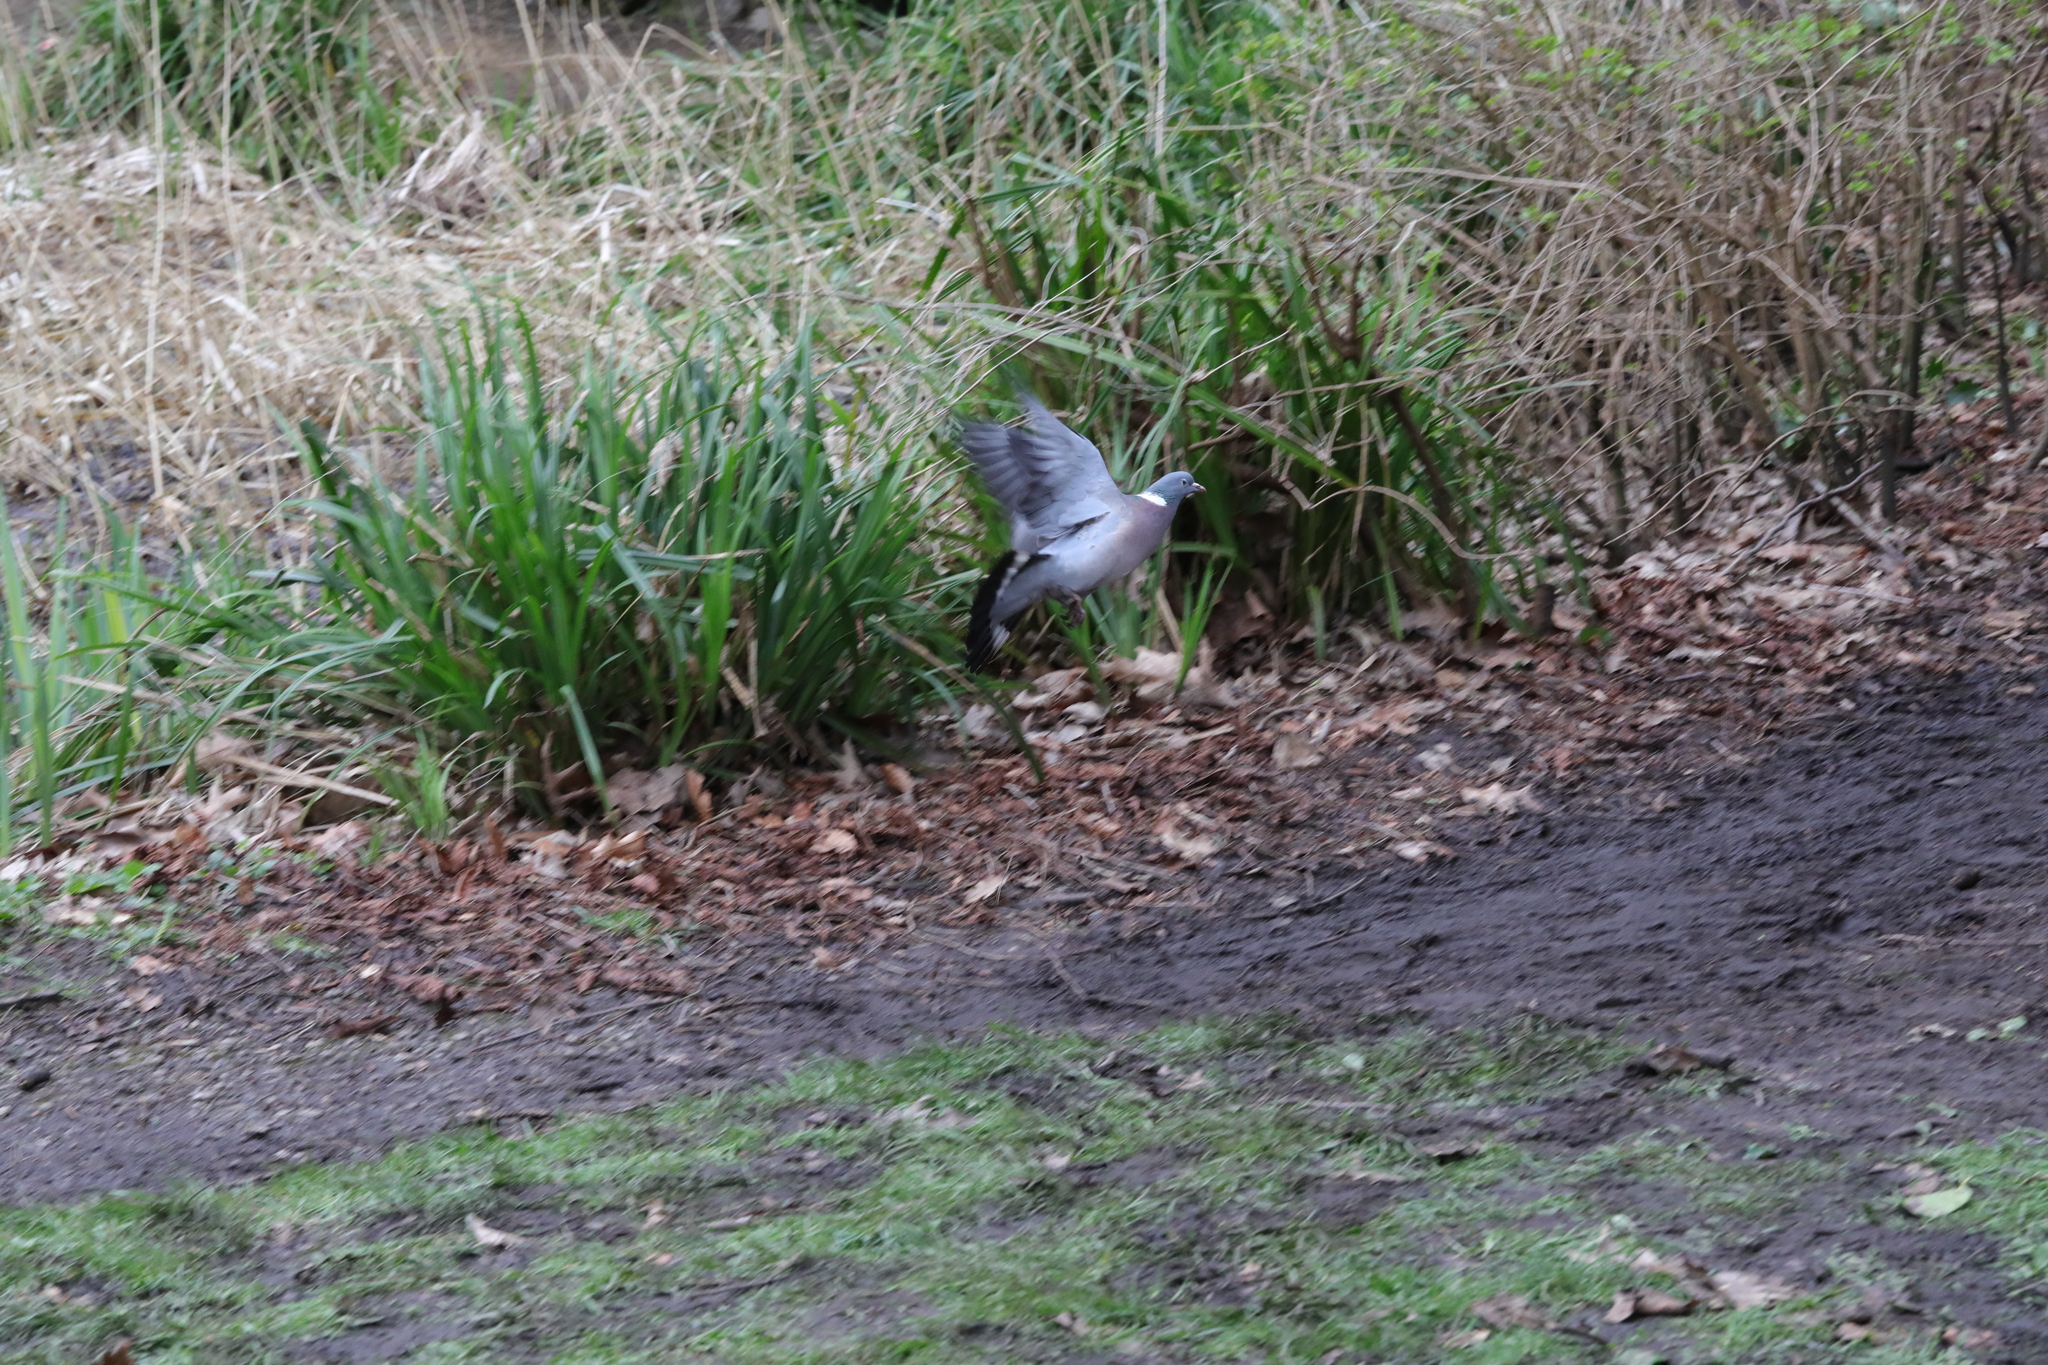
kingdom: Animalia
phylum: Chordata
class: Aves
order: Columbiformes
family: Columbidae
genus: Columba
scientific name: Columba palumbus
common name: Common wood pigeon
